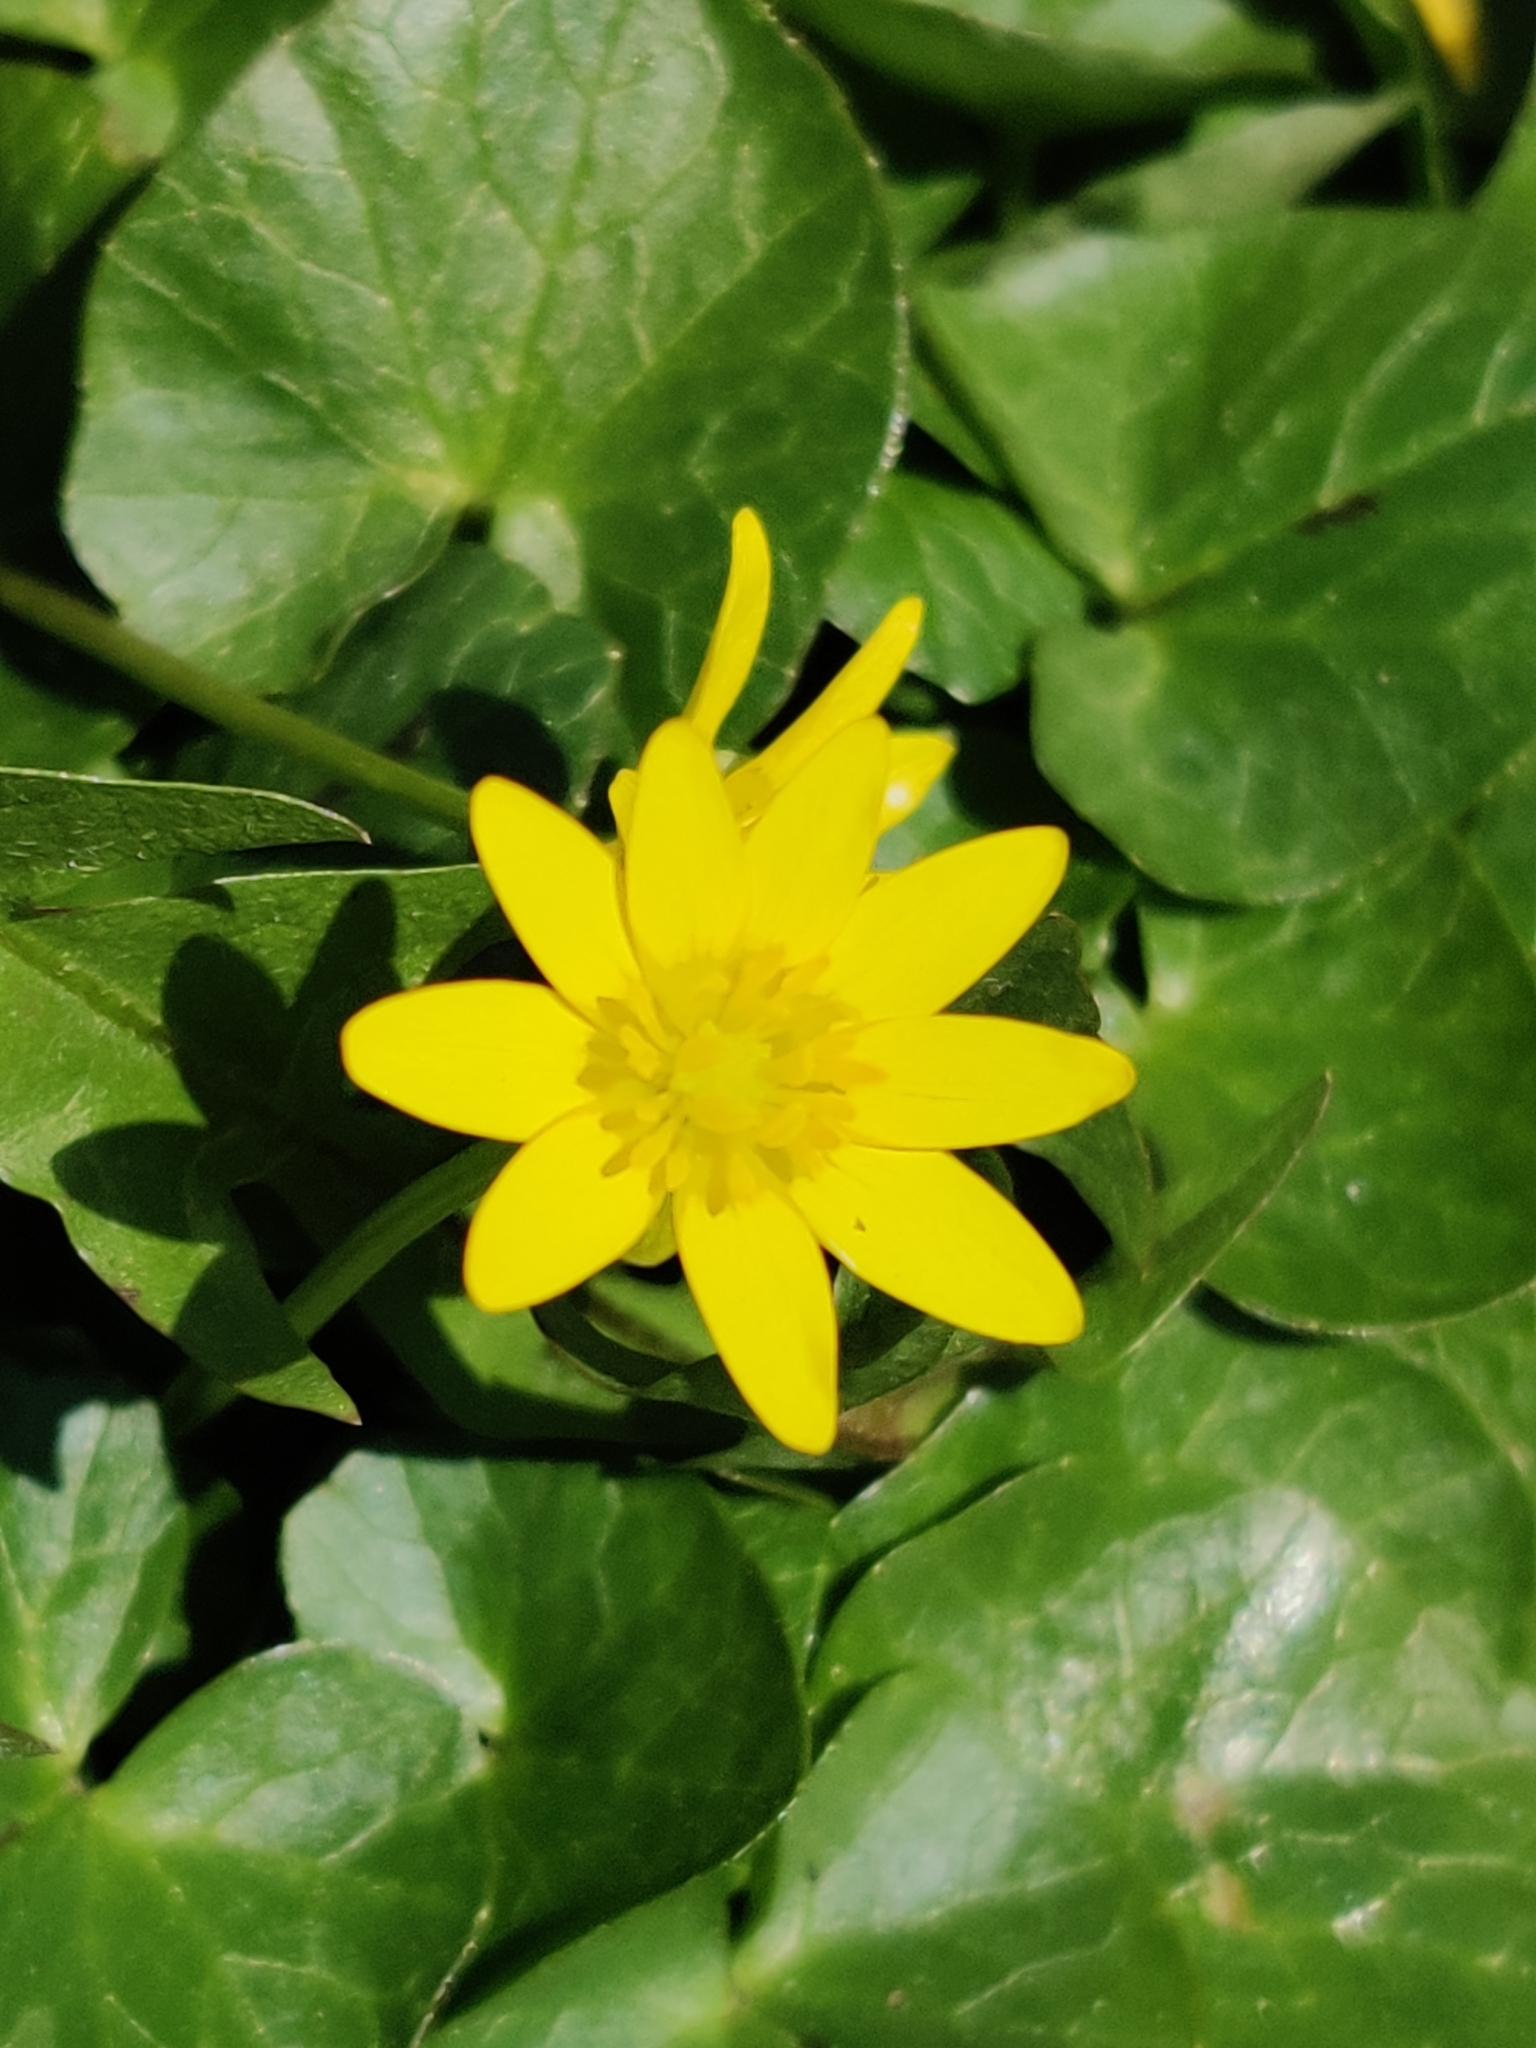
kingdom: Plantae
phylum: Tracheophyta
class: Magnoliopsida
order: Ranunculales
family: Ranunculaceae
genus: Ficaria
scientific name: Ficaria verna
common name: Lesser celandine
